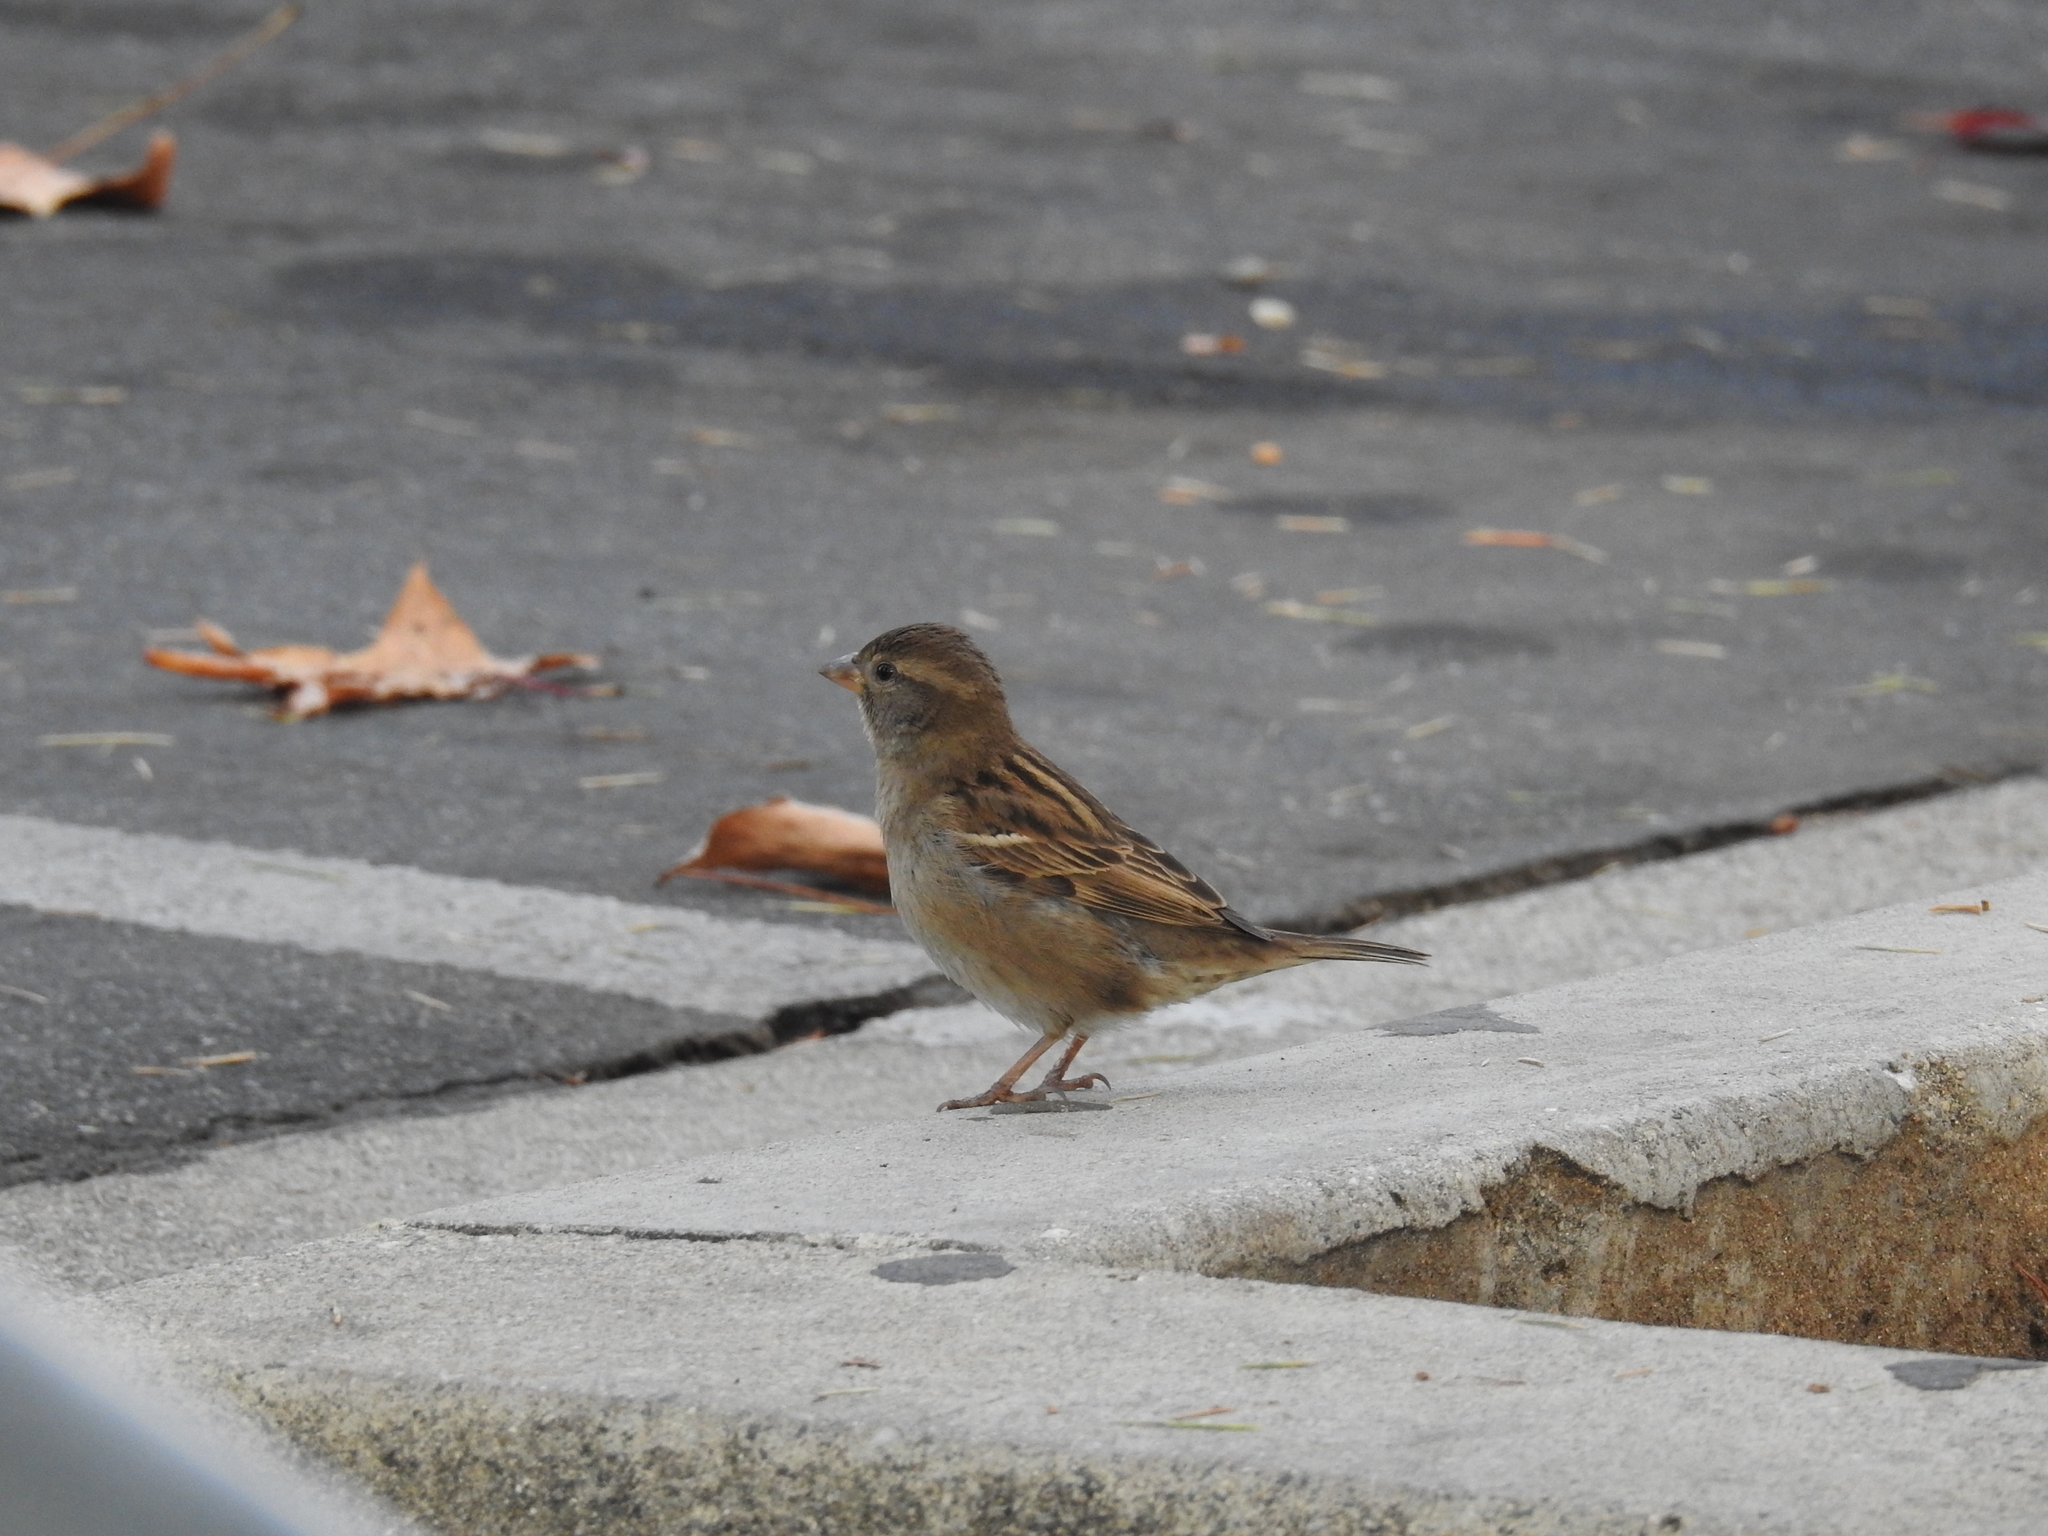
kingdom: Animalia
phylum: Chordata
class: Aves
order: Passeriformes
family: Passeridae
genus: Passer
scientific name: Passer domesticus
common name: House sparrow
